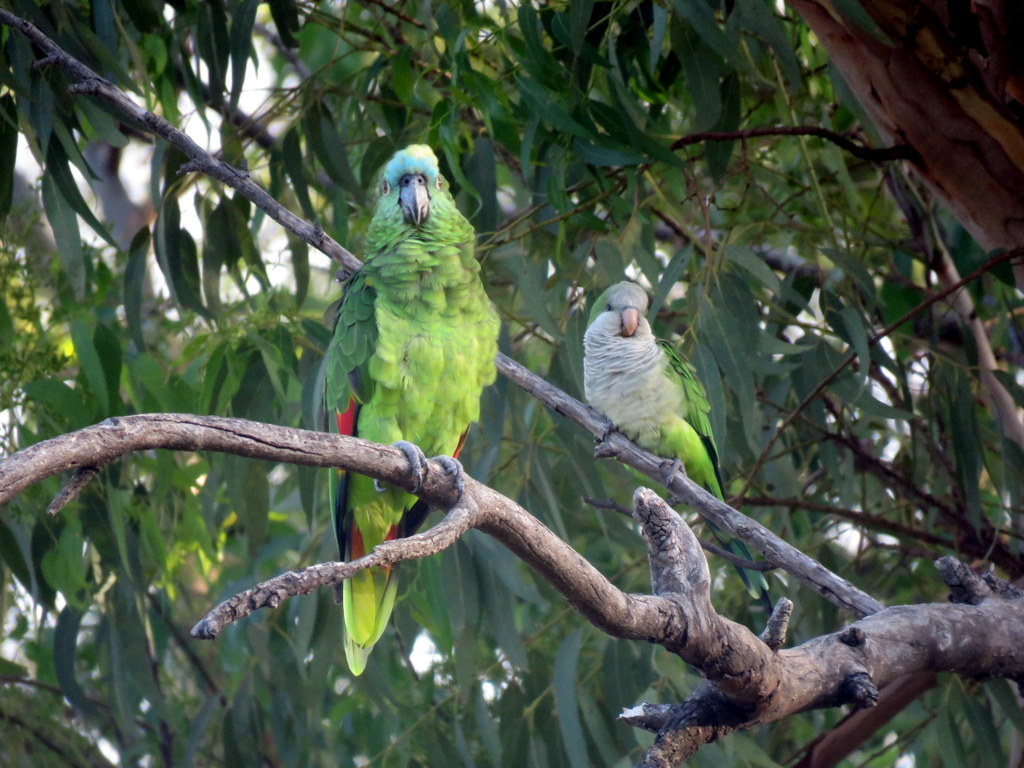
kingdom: Animalia
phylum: Chordata
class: Aves
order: Psittaciformes
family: Psittacidae
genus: Myiopsitta
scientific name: Myiopsitta monachus
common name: Monk parakeet
